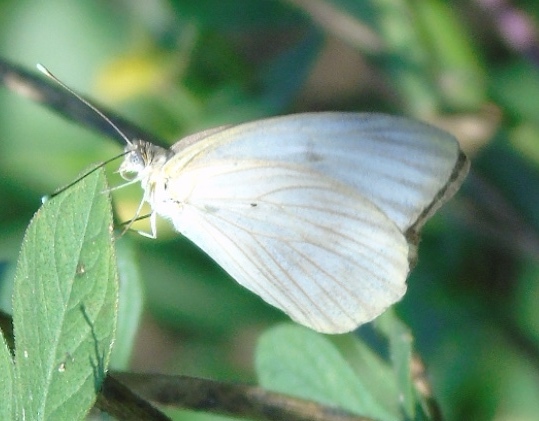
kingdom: Animalia
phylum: Arthropoda
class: Insecta
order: Lepidoptera
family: Pieridae
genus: Ascia
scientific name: Ascia monuste
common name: Great southern white
